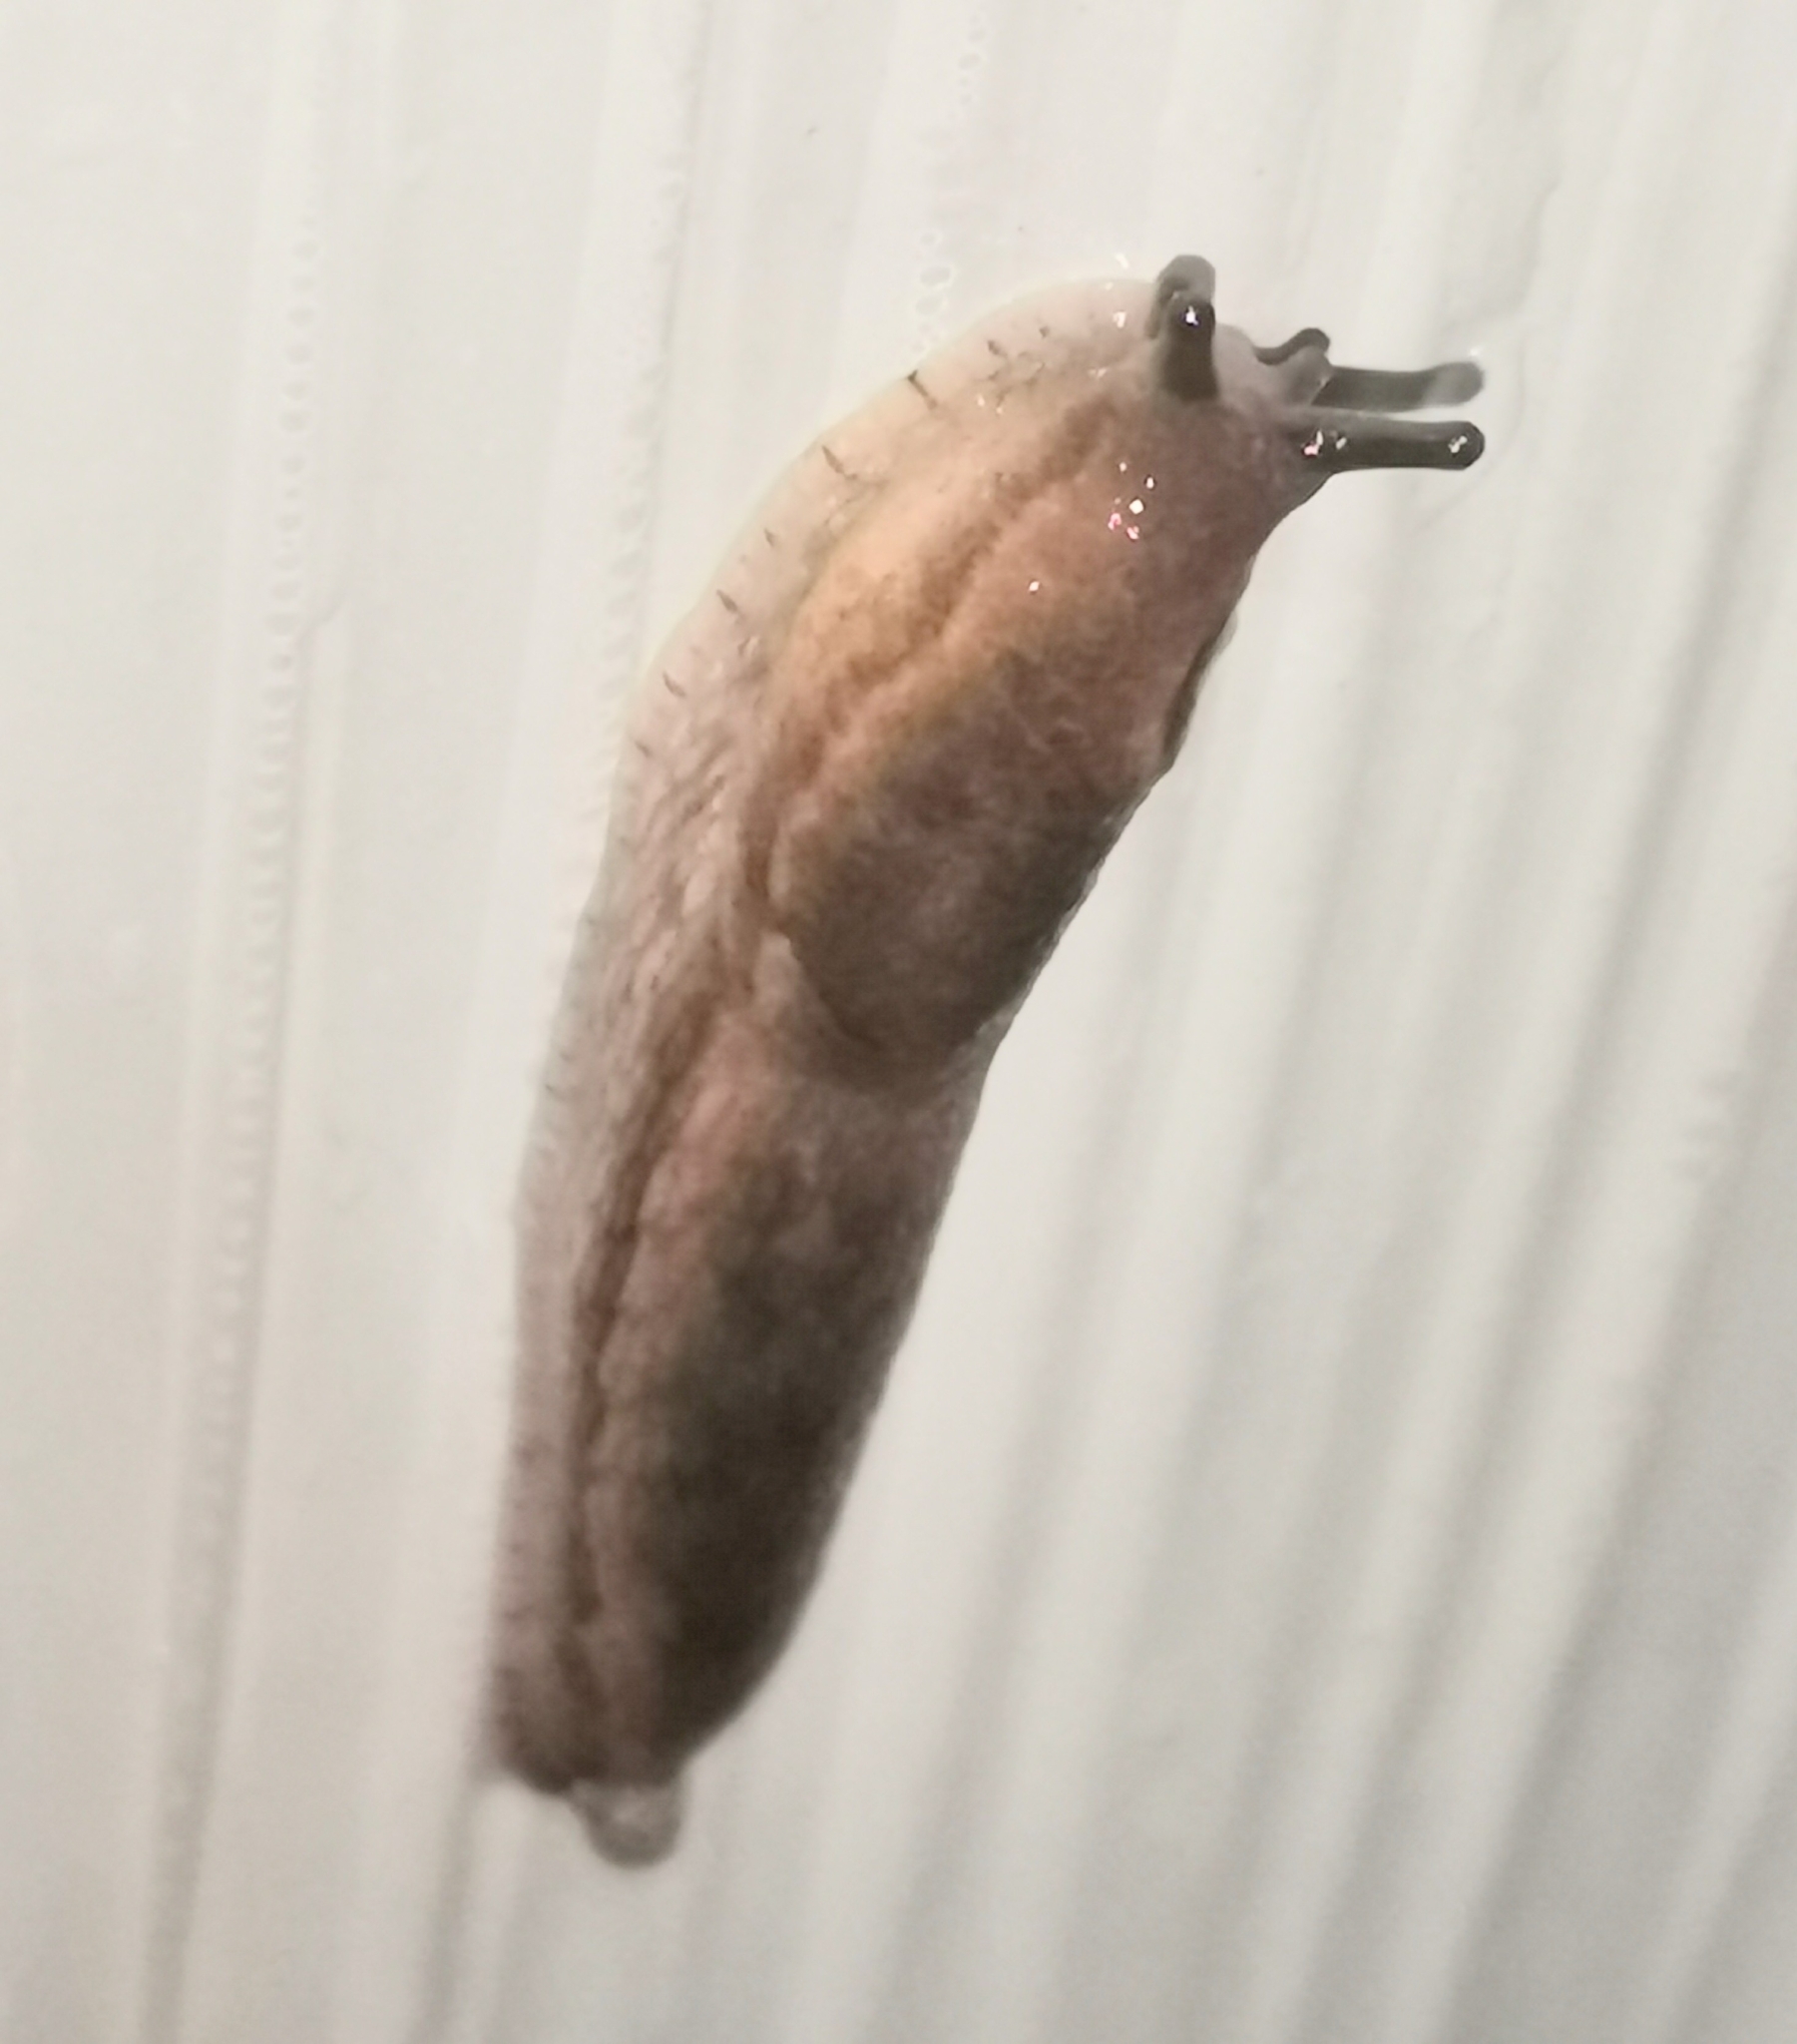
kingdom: Animalia
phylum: Mollusca
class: Gastropoda
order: Stylommatophora
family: Arionidae
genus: Arion
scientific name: Arion fuscus
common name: Northern dusky slug
